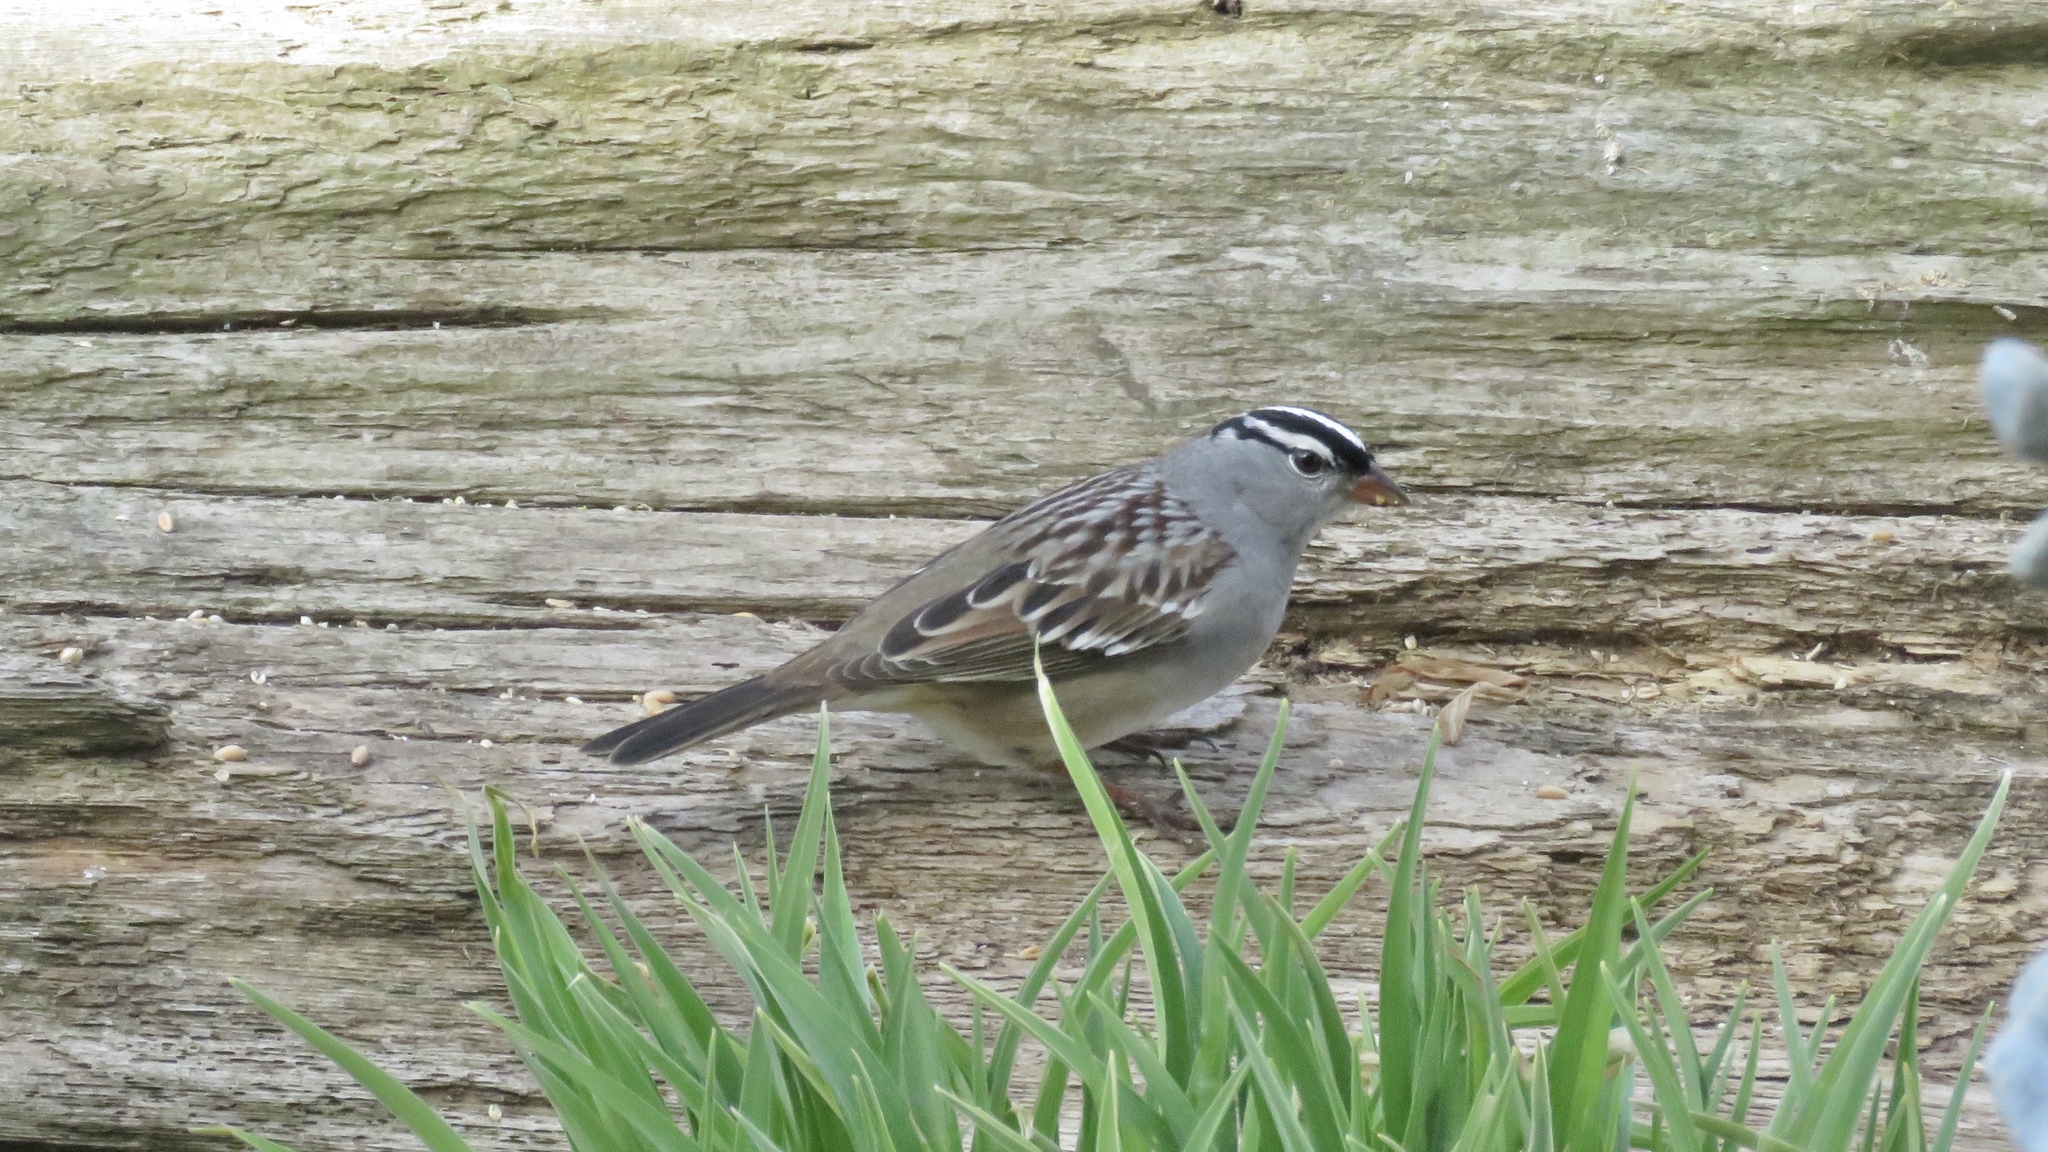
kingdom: Animalia
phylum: Chordata
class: Aves
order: Passeriformes
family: Passerellidae
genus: Zonotrichia
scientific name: Zonotrichia leucophrys
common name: White-crowned sparrow
